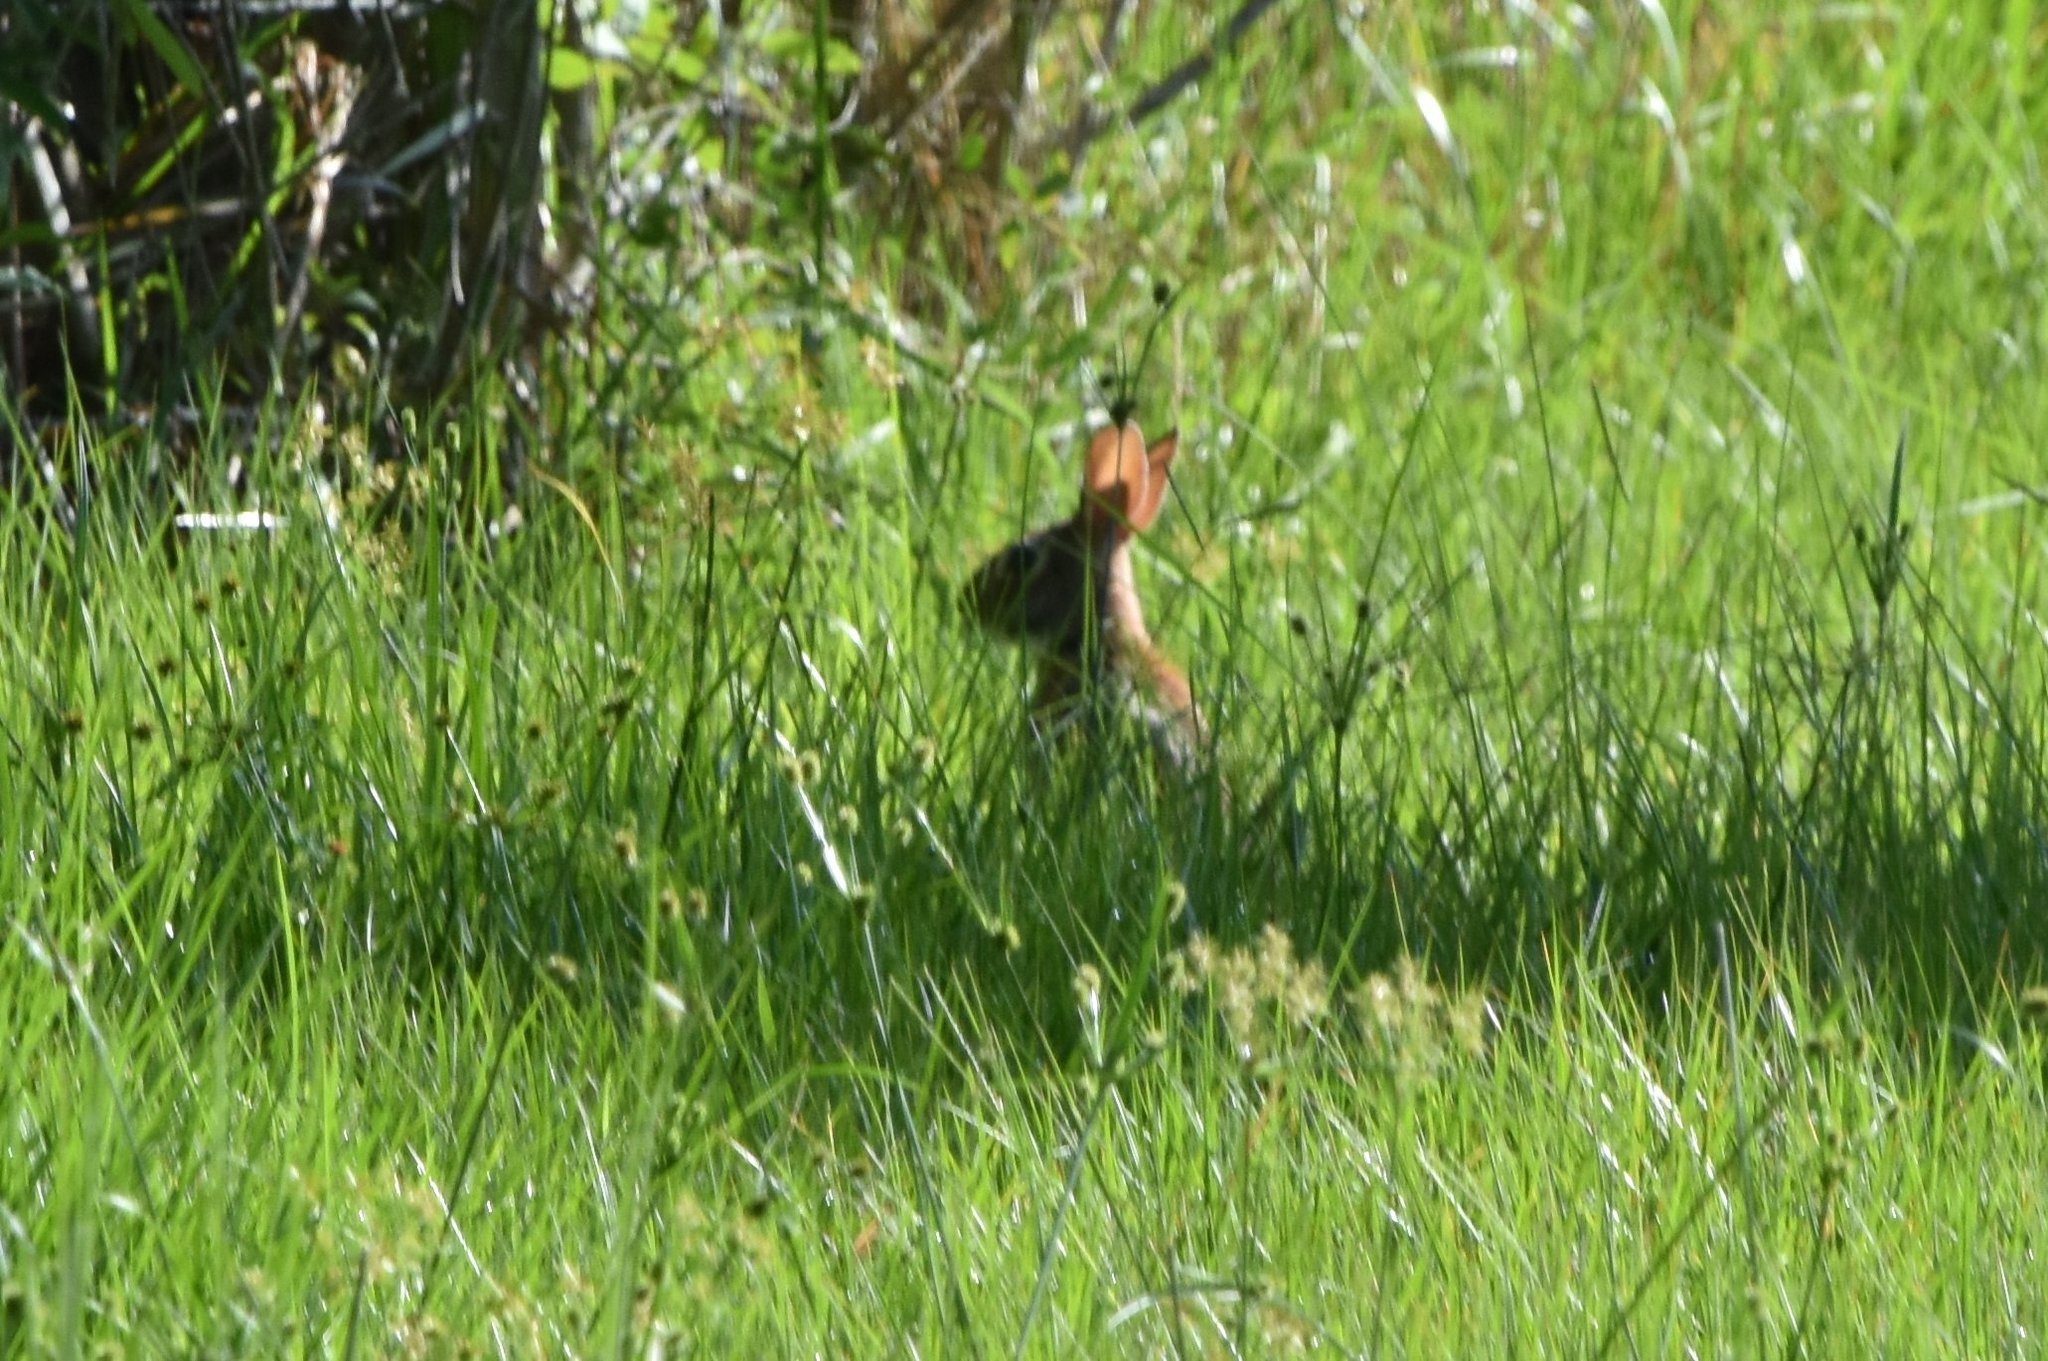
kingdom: Animalia
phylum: Chordata
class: Mammalia
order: Lagomorpha
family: Leporidae
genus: Sylvilagus
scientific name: Sylvilagus floridanus
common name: Eastern cottontail
